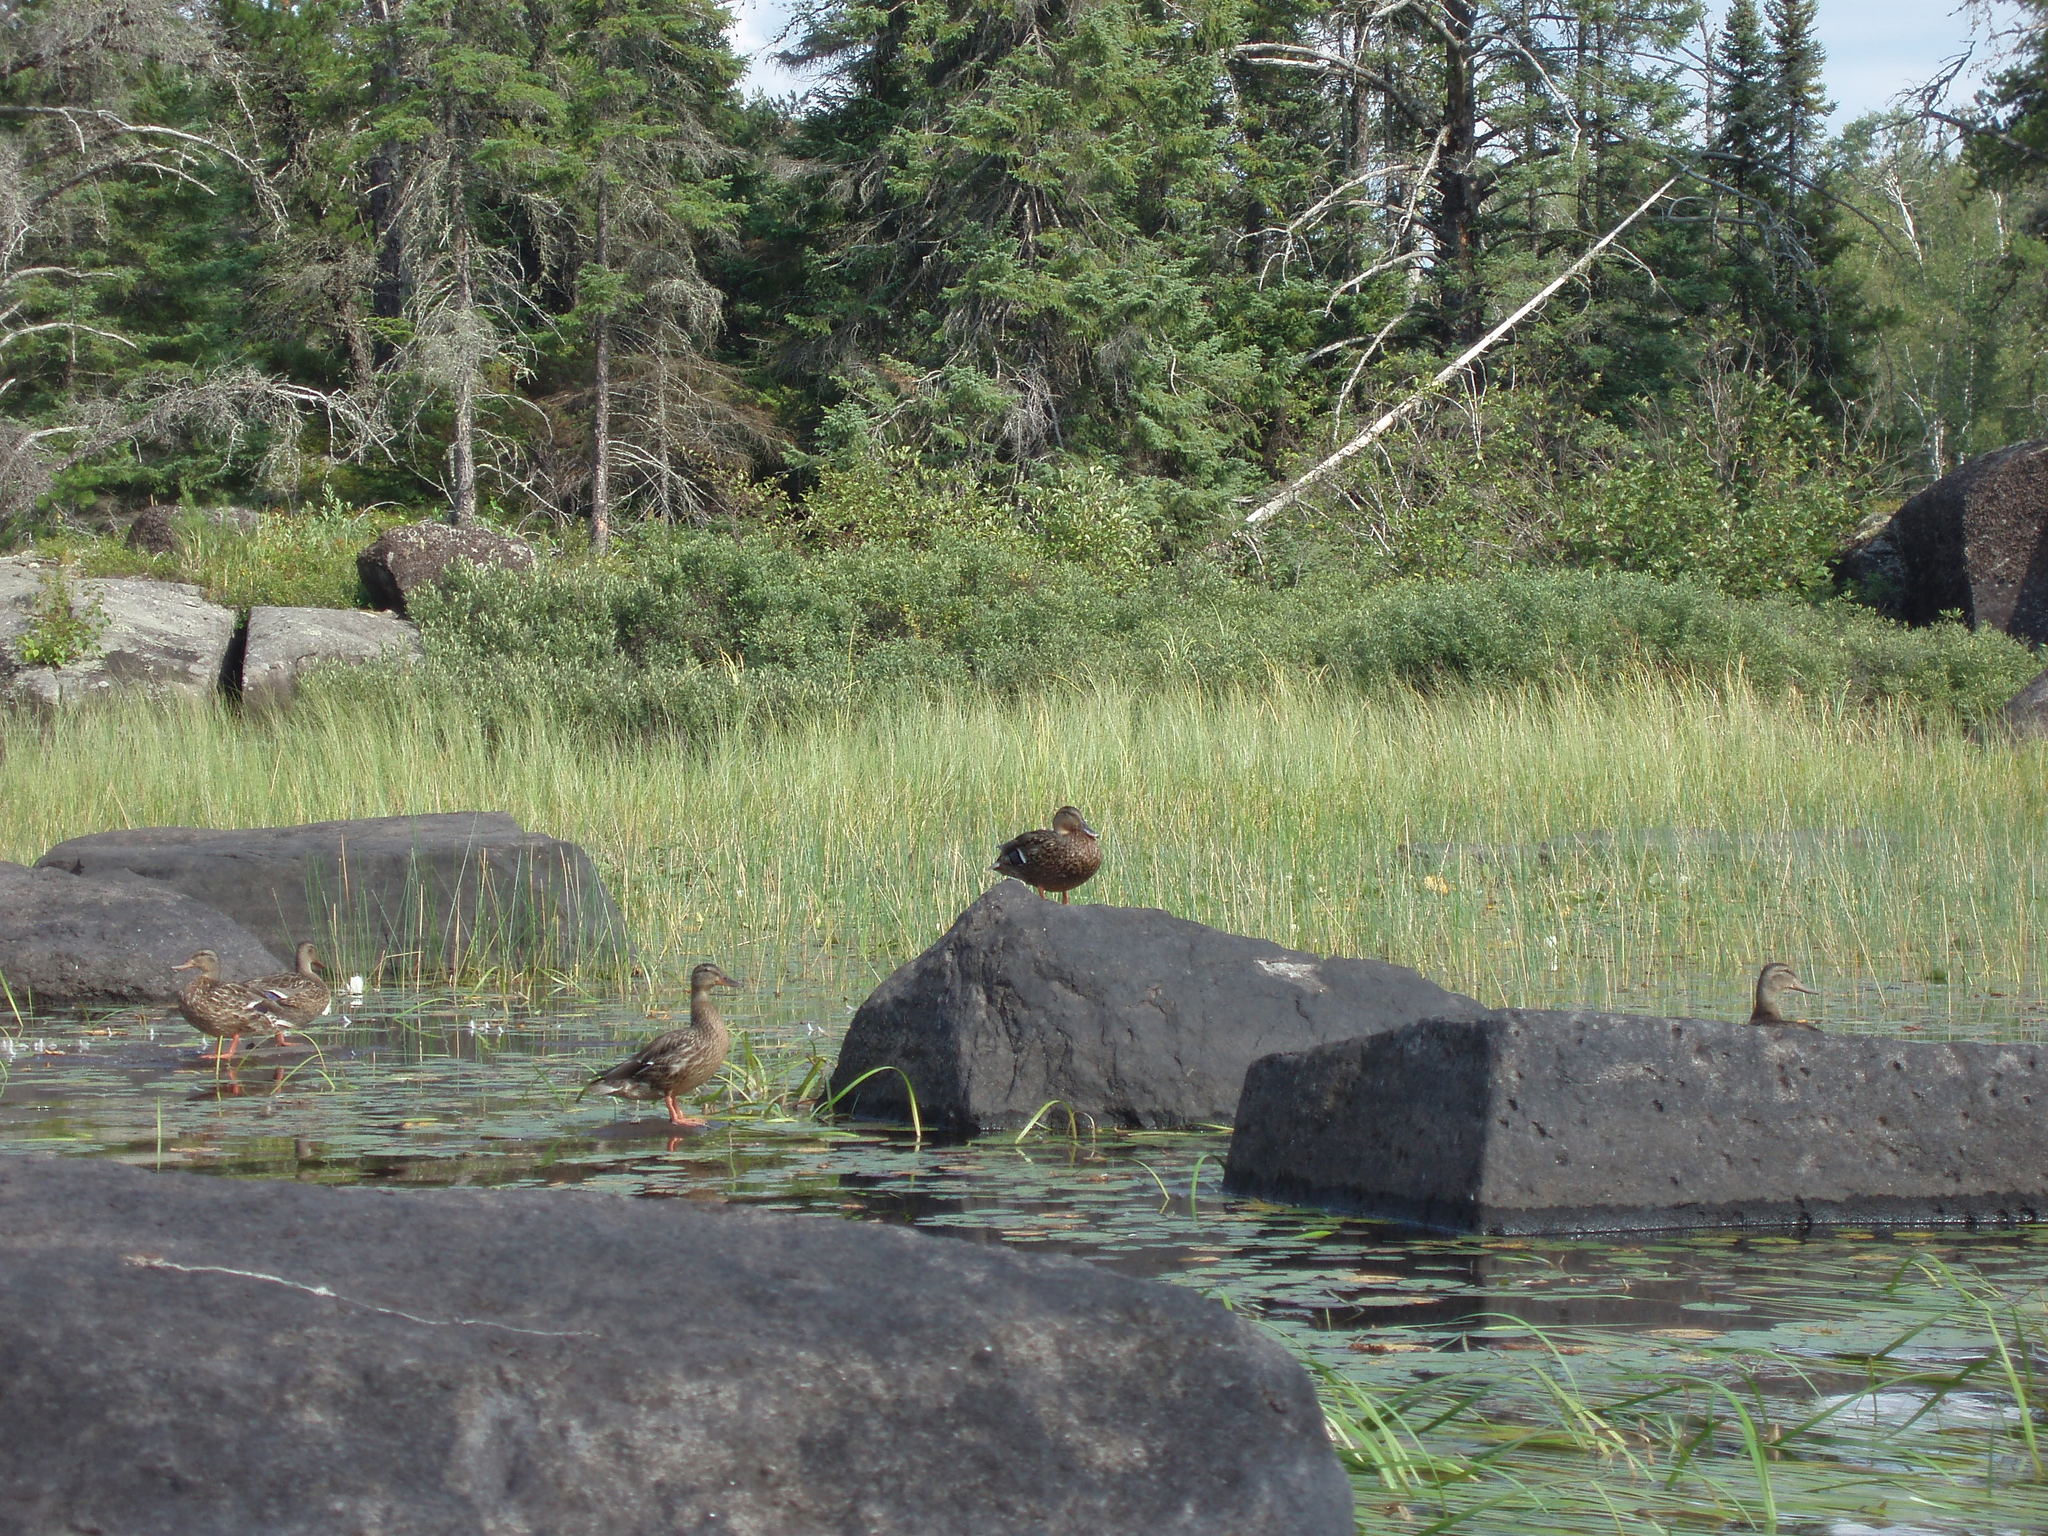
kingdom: Animalia
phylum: Chordata
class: Aves
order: Anseriformes
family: Anatidae
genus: Anas
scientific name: Anas platyrhynchos
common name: Mallard
